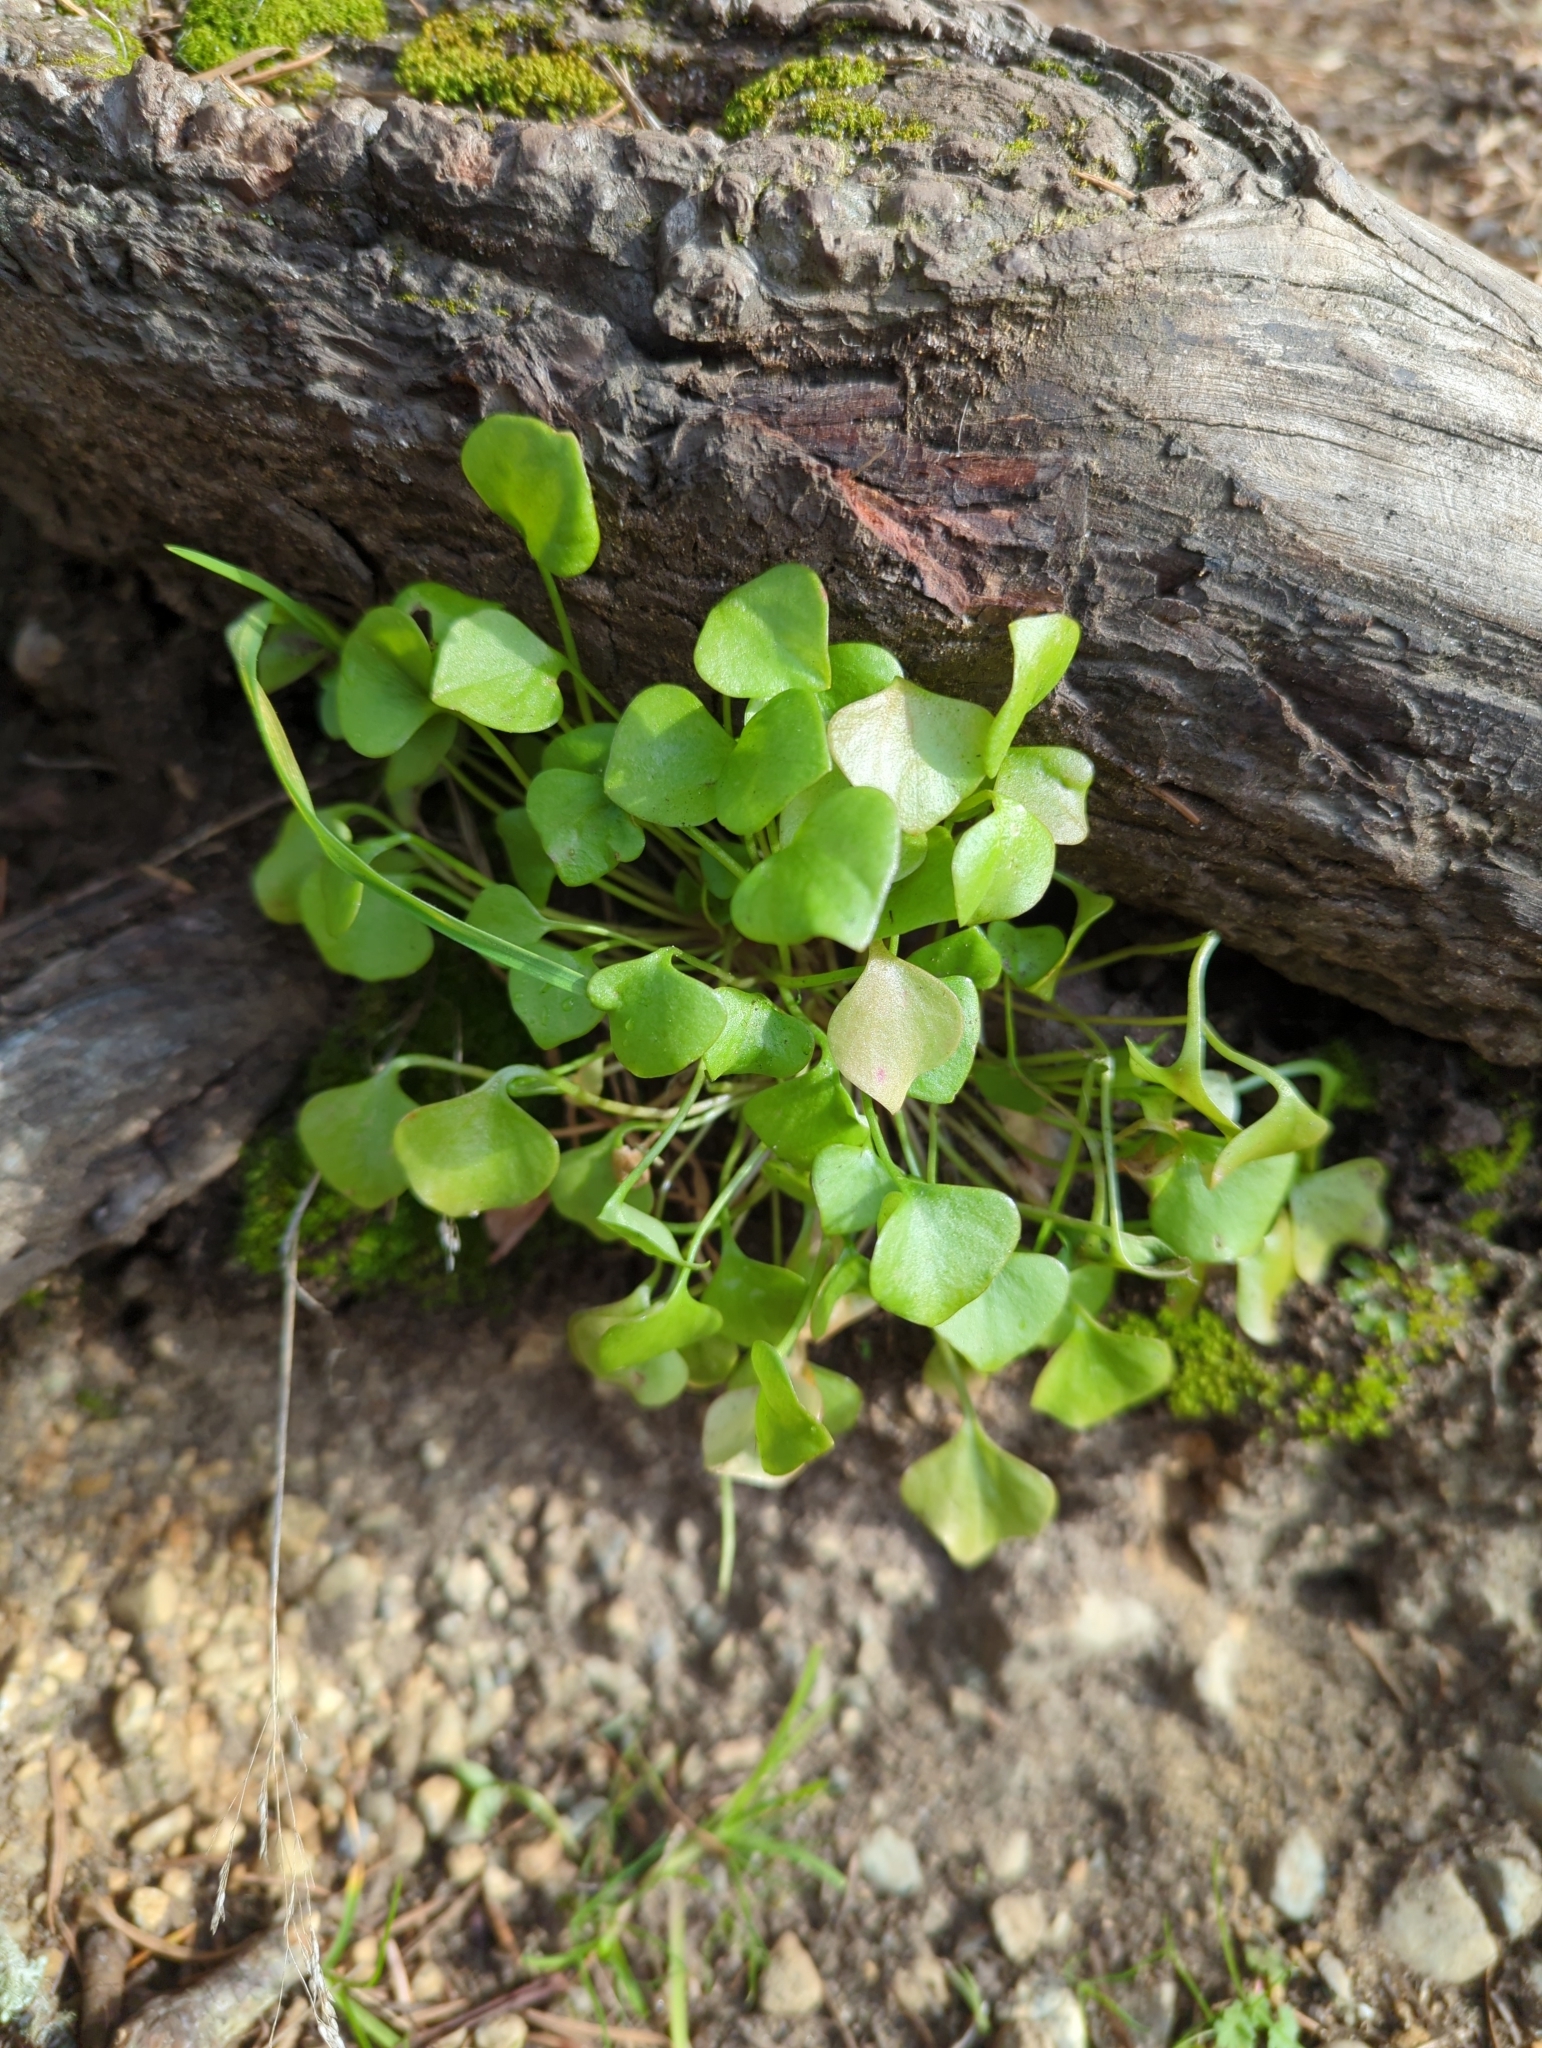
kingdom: Plantae
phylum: Tracheophyta
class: Magnoliopsida
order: Caryophyllales
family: Montiaceae
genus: Claytonia
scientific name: Claytonia perfoliata
